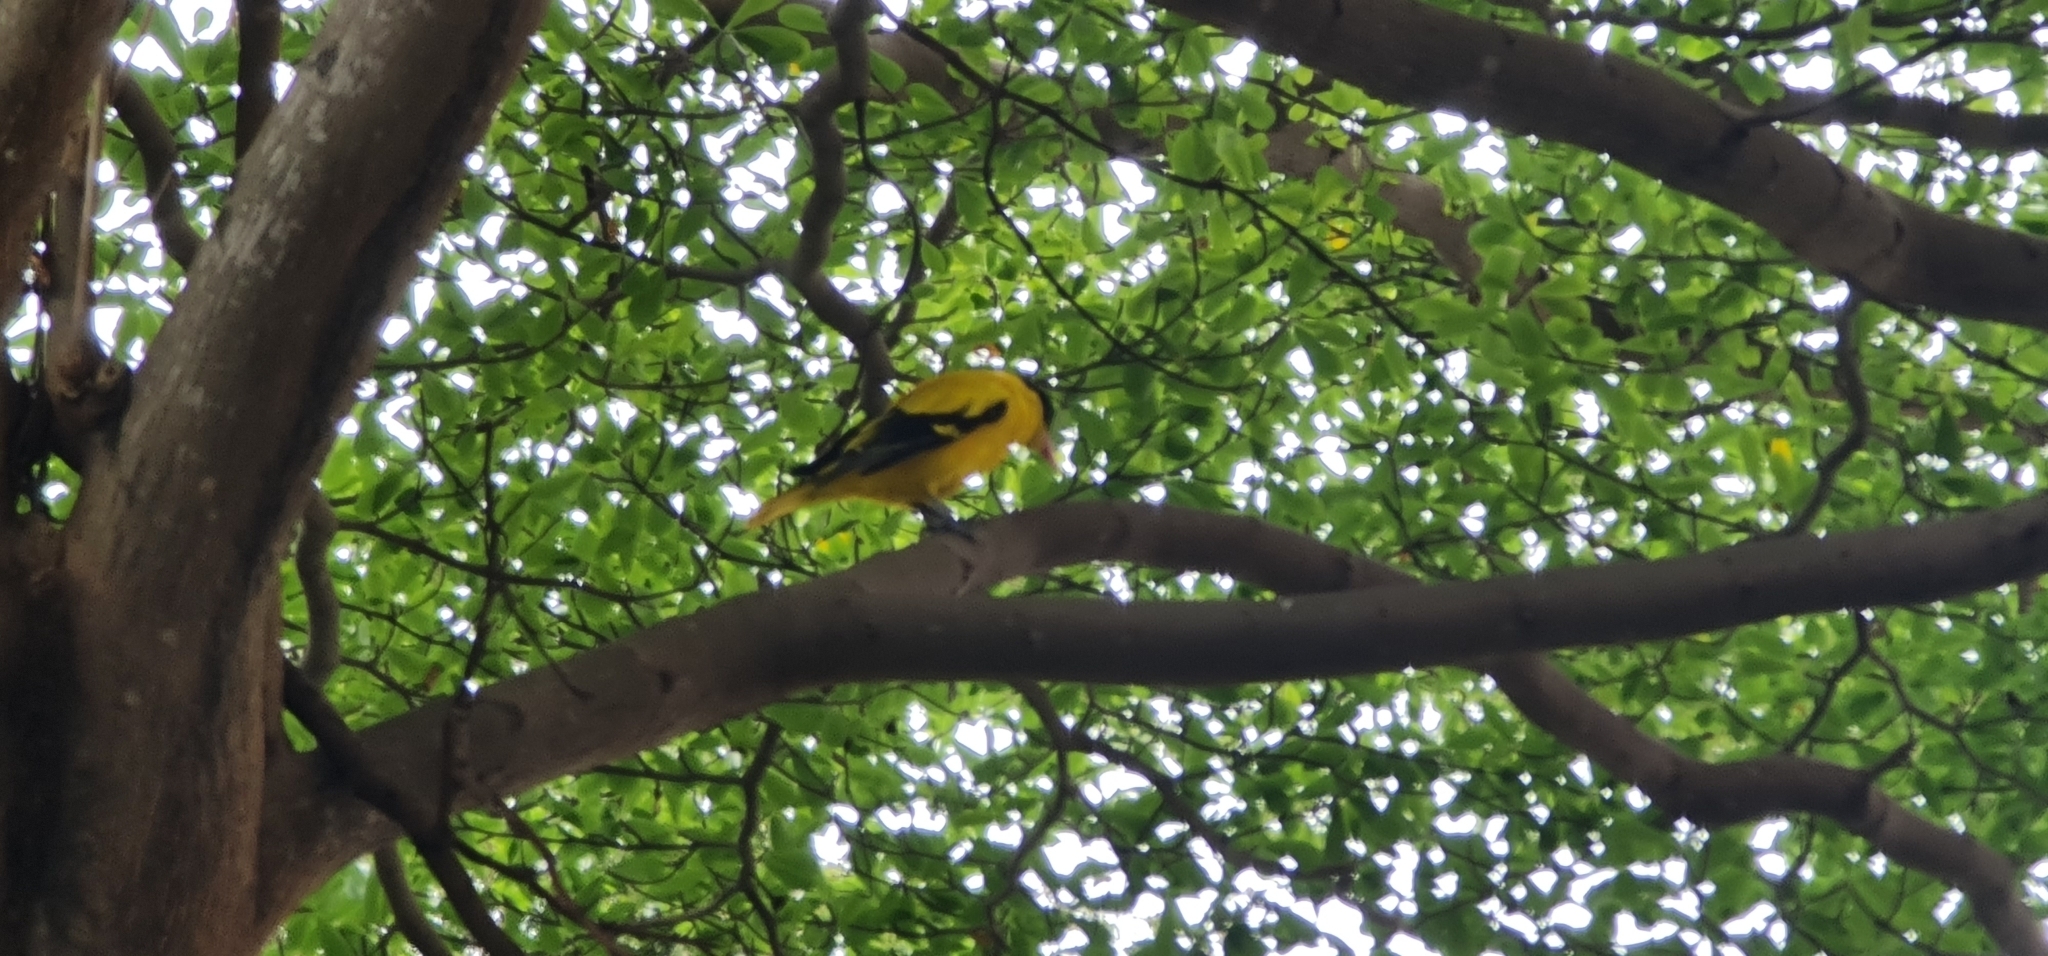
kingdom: Animalia
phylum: Chordata
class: Aves
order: Passeriformes
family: Oriolidae
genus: Oriolus
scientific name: Oriolus chinensis
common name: Black-naped oriole
